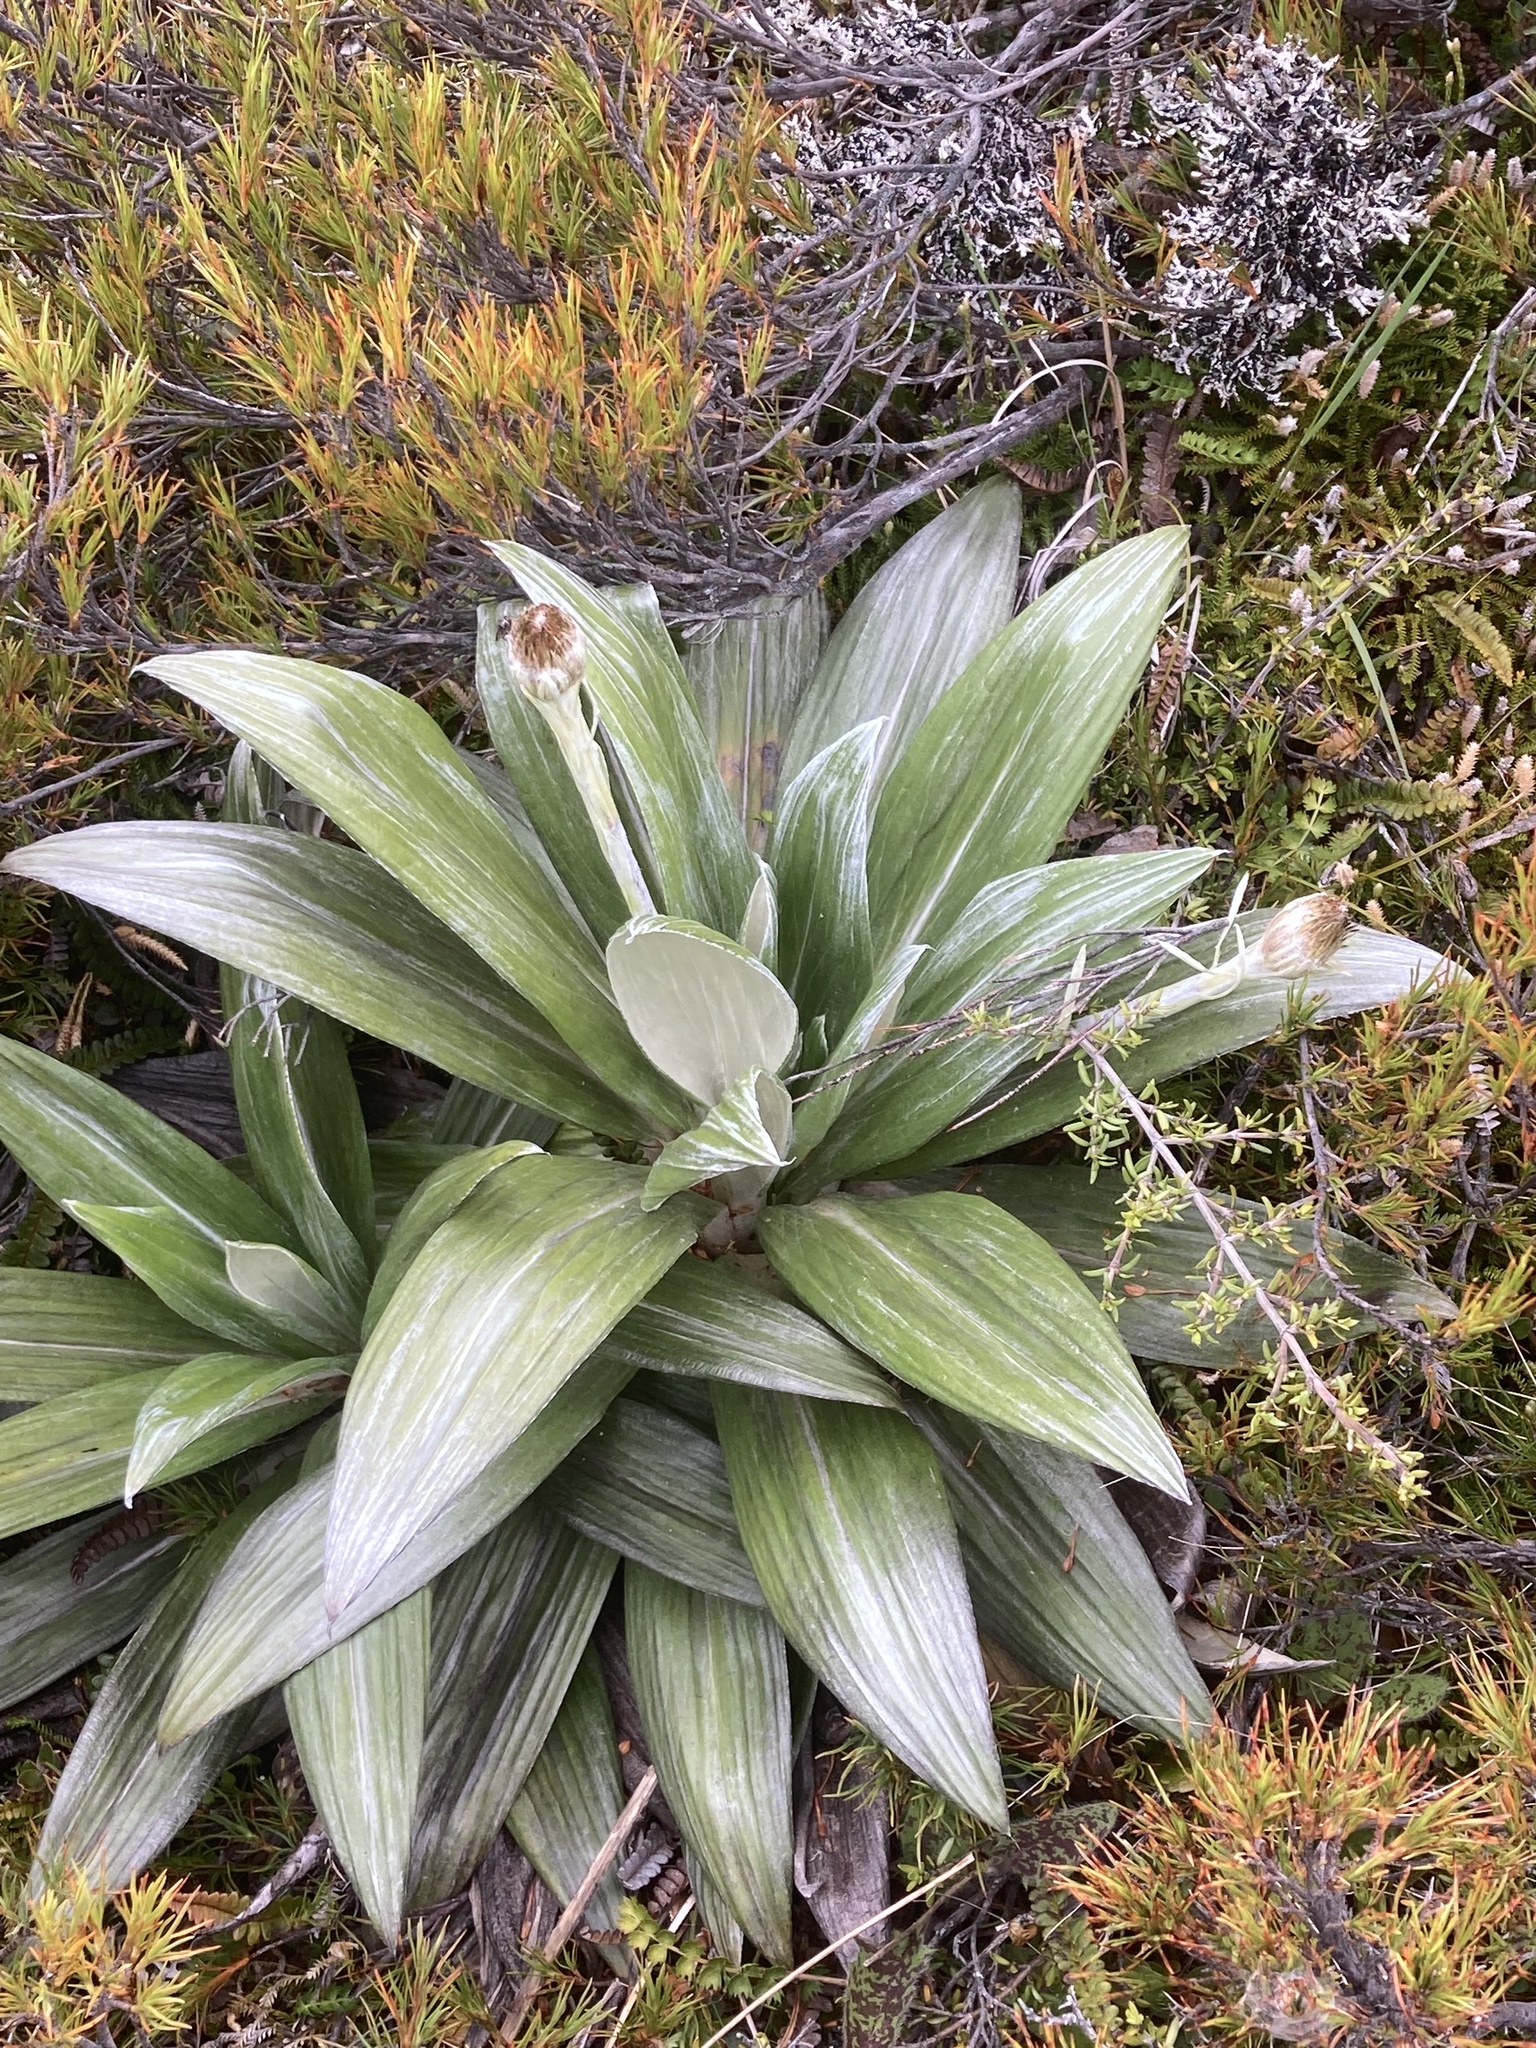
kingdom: Plantae
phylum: Tracheophyta
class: Magnoliopsida
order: Asterales
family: Asteraceae
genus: Celmisia
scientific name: Celmisia semicordata
